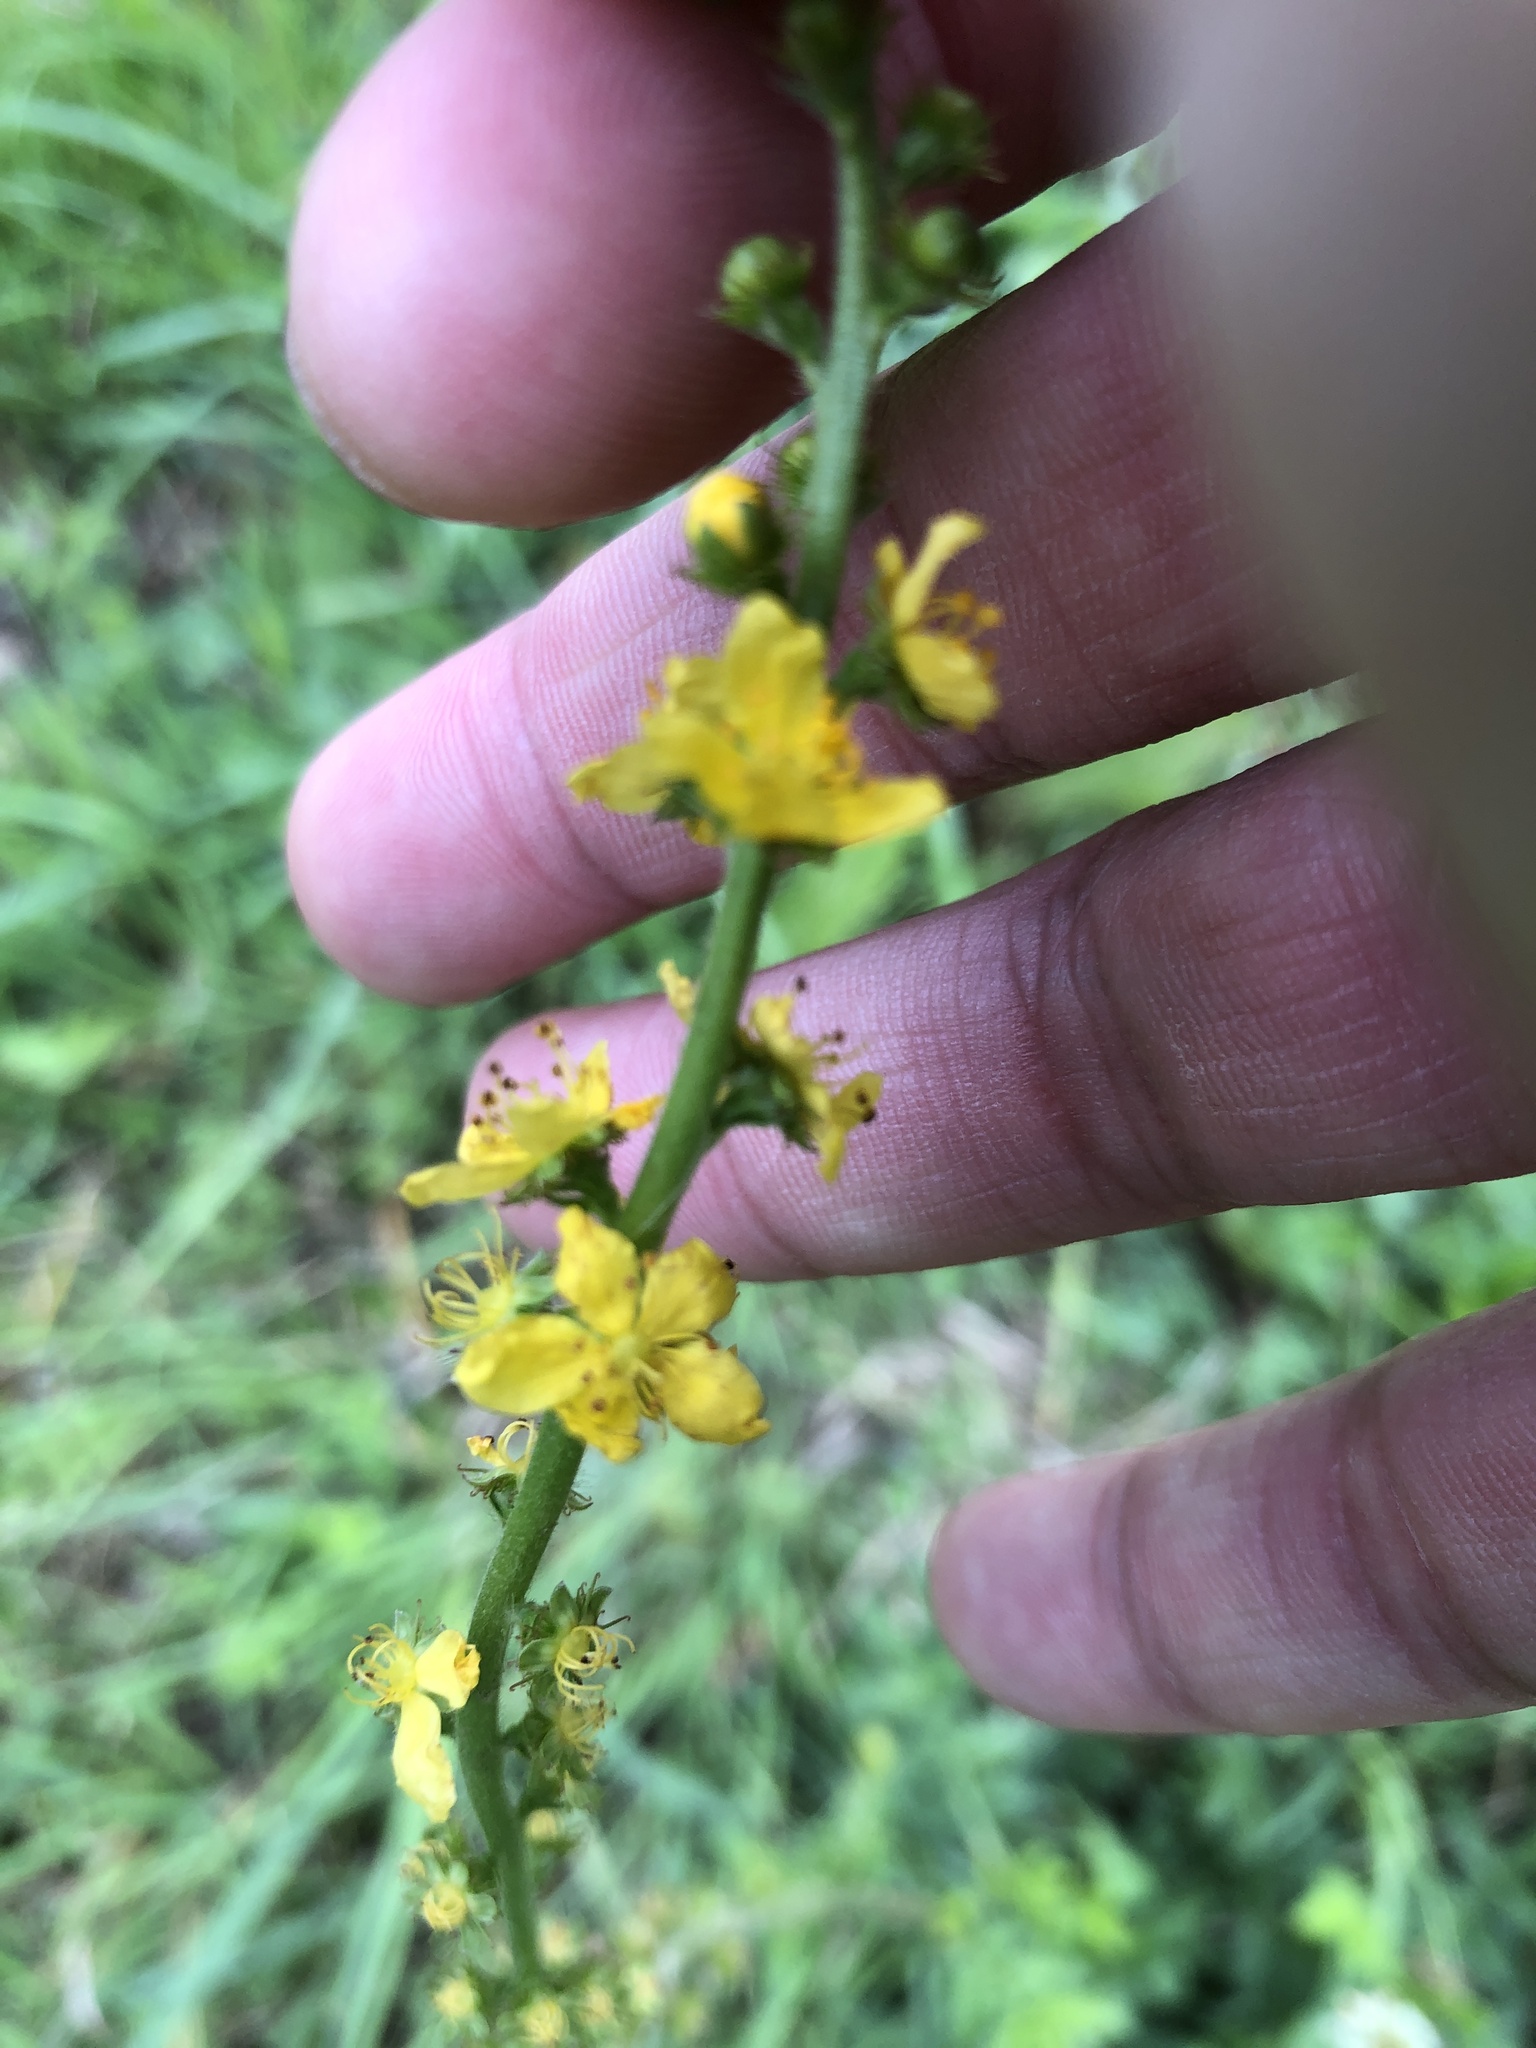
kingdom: Plantae
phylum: Tracheophyta
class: Magnoliopsida
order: Rosales
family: Rosaceae
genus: Agrimonia
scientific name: Agrimonia eupatoria
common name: Agrimony
